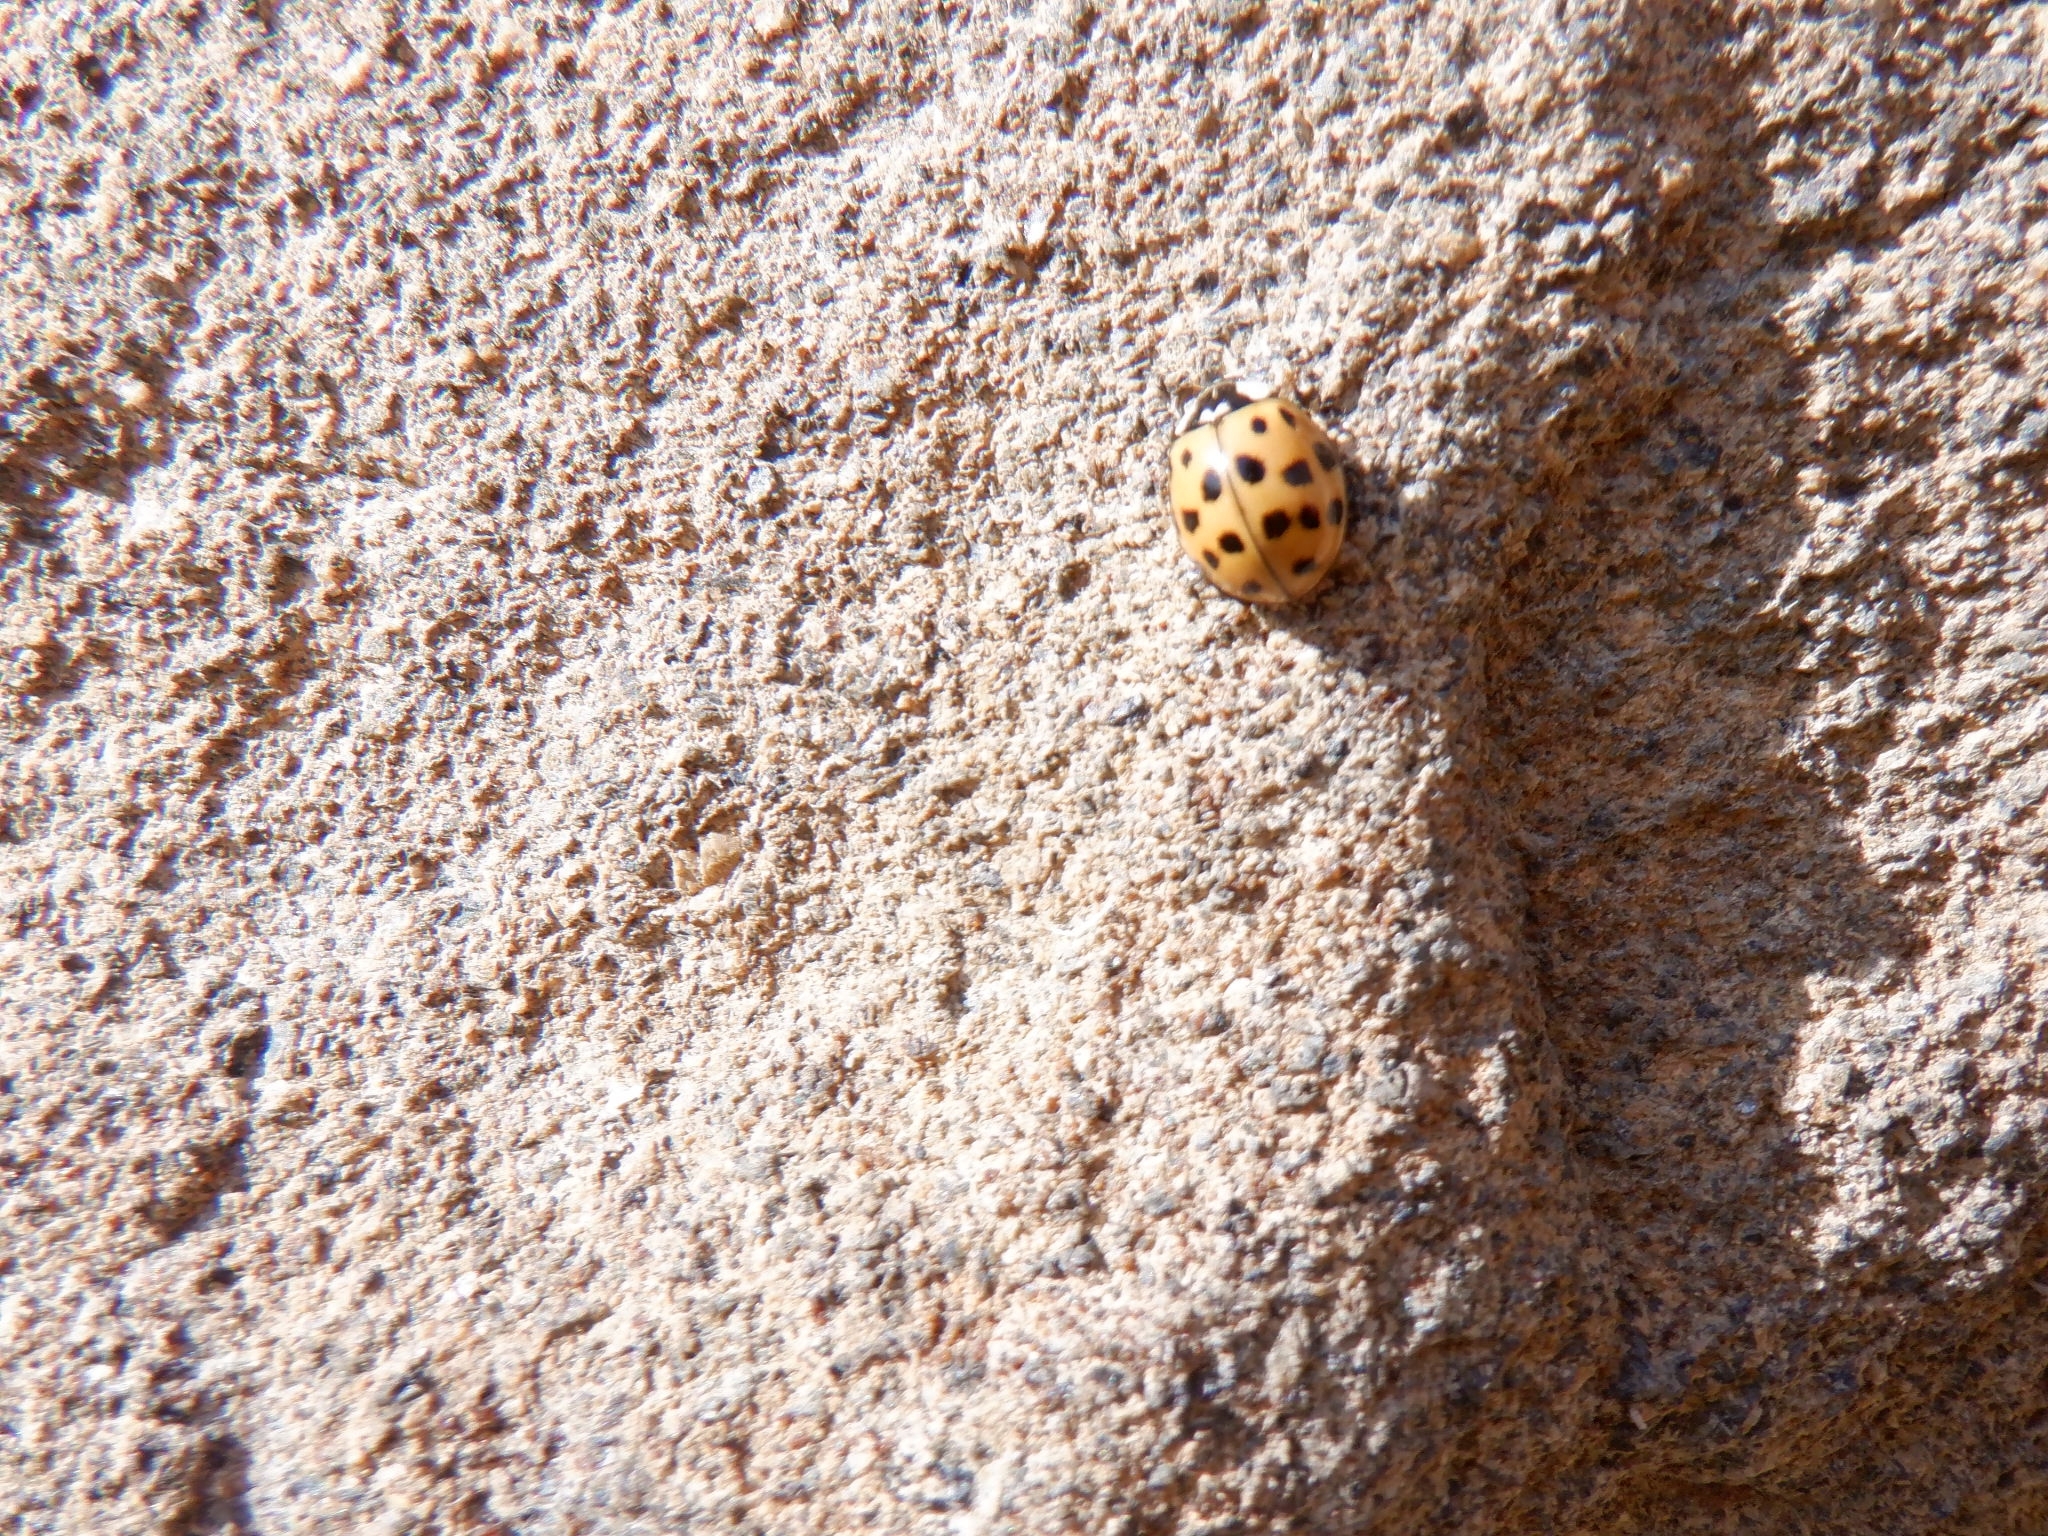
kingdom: Animalia
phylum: Arthropoda
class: Insecta
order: Coleoptera
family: Coccinellidae
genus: Harmonia
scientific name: Harmonia axyridis
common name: Harlequin ladybird
